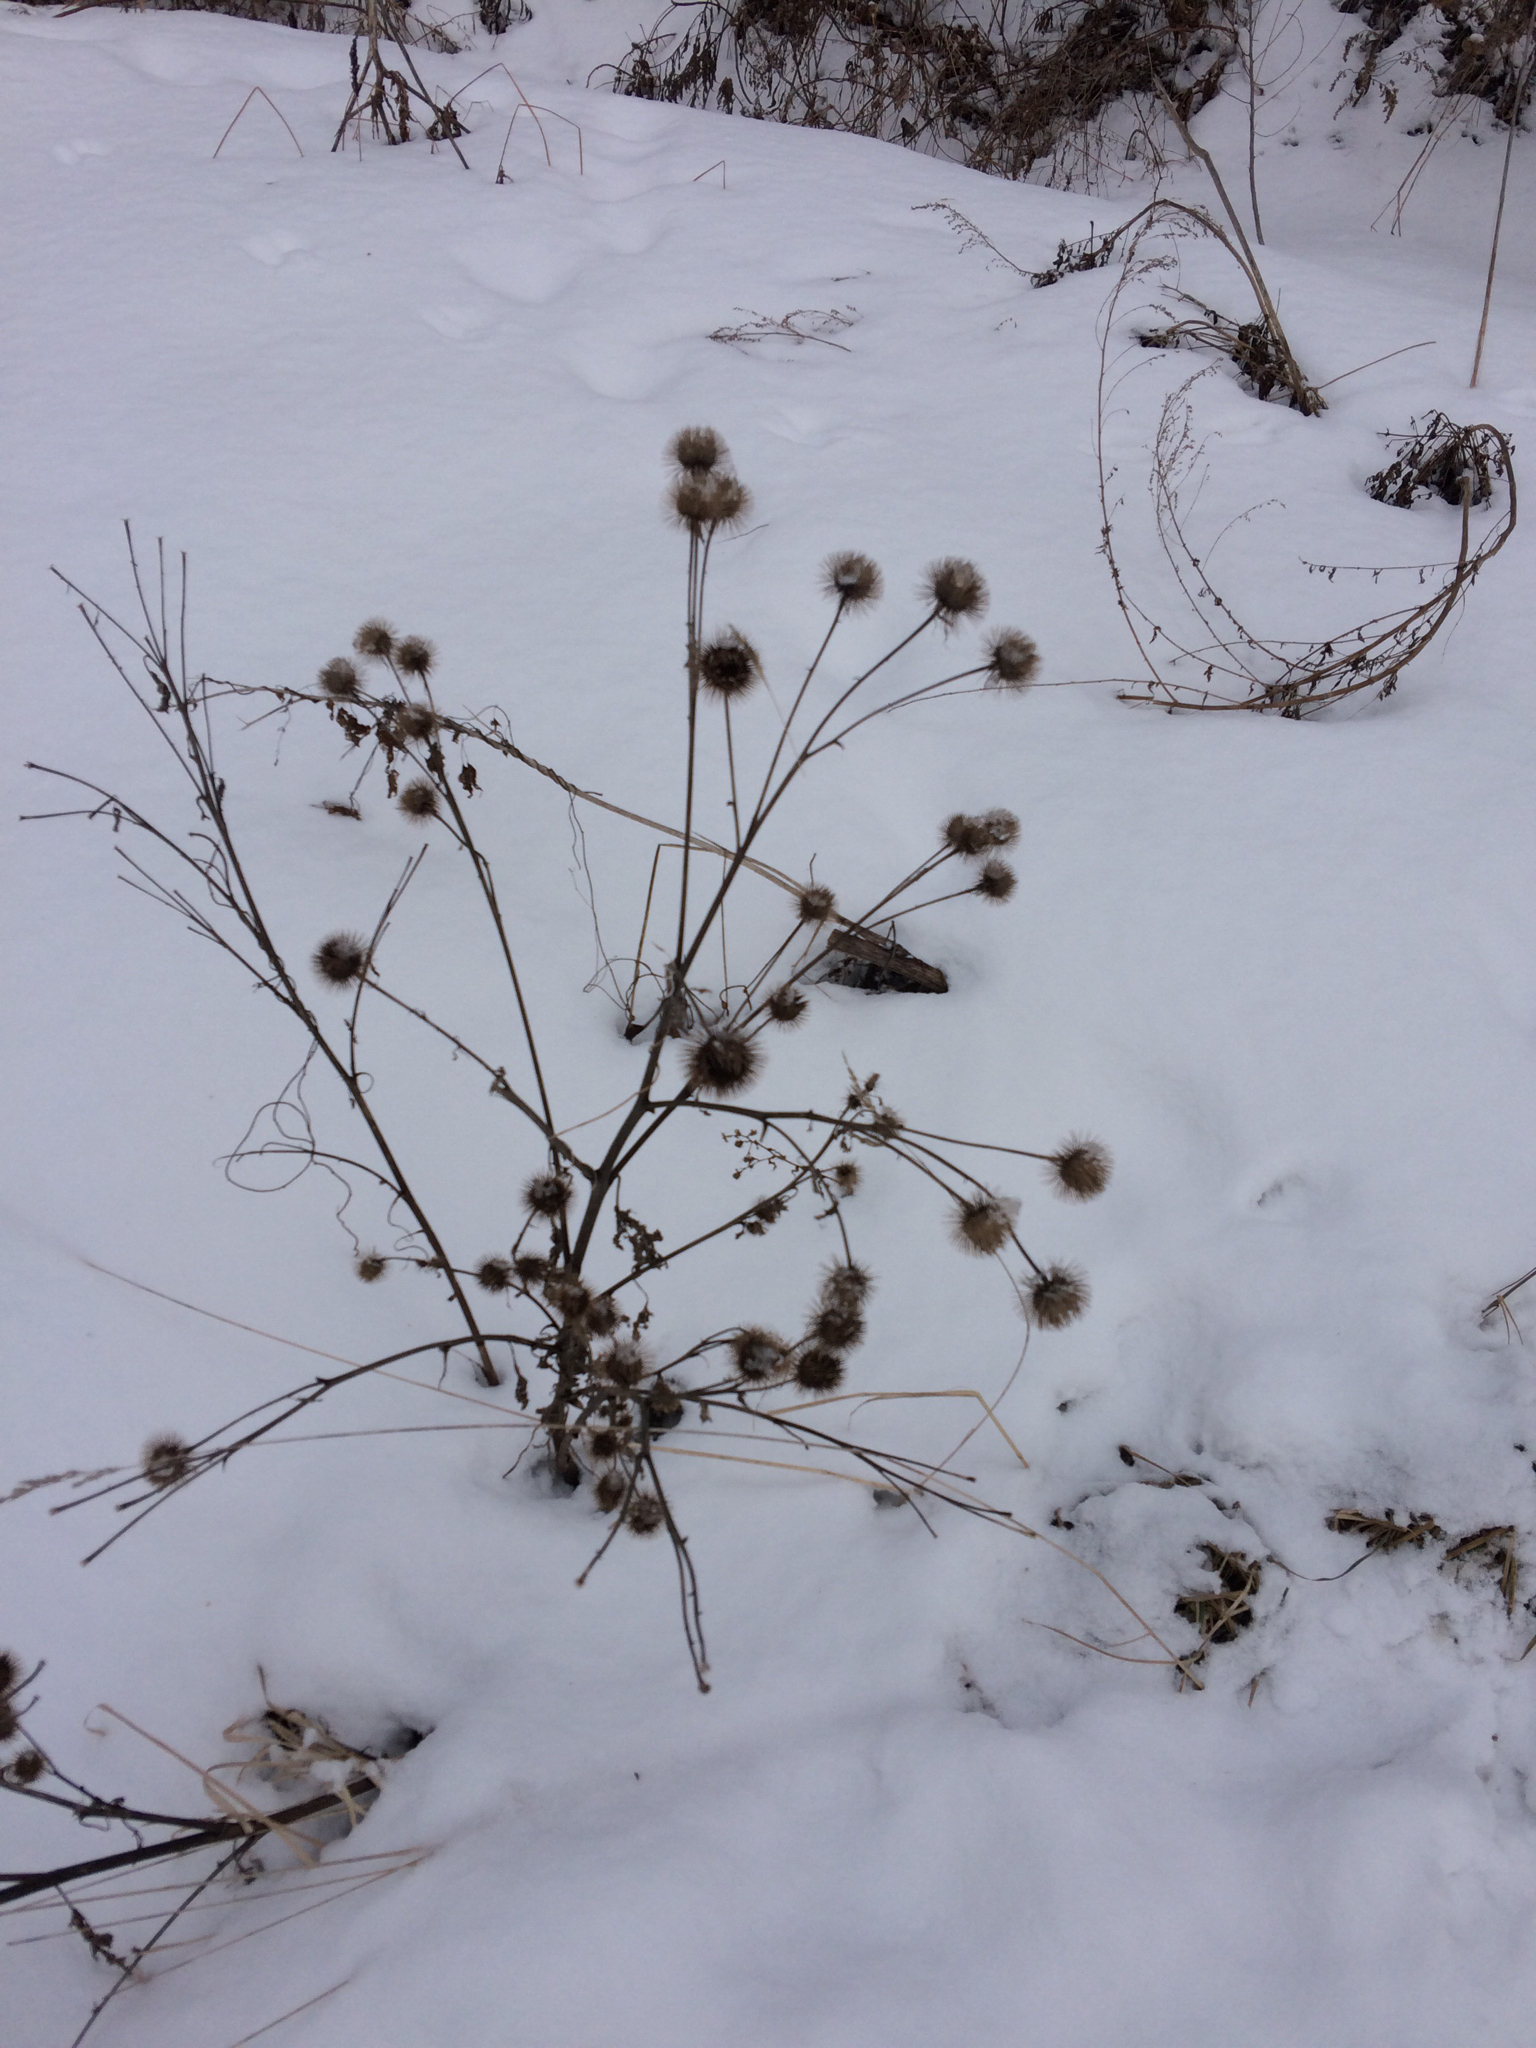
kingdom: Plantae
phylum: Tracheophyta
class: Magnoliopsida
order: Asterales
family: Asteraceae
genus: Arctium
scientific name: Arctium lappa
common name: Greater burdock
